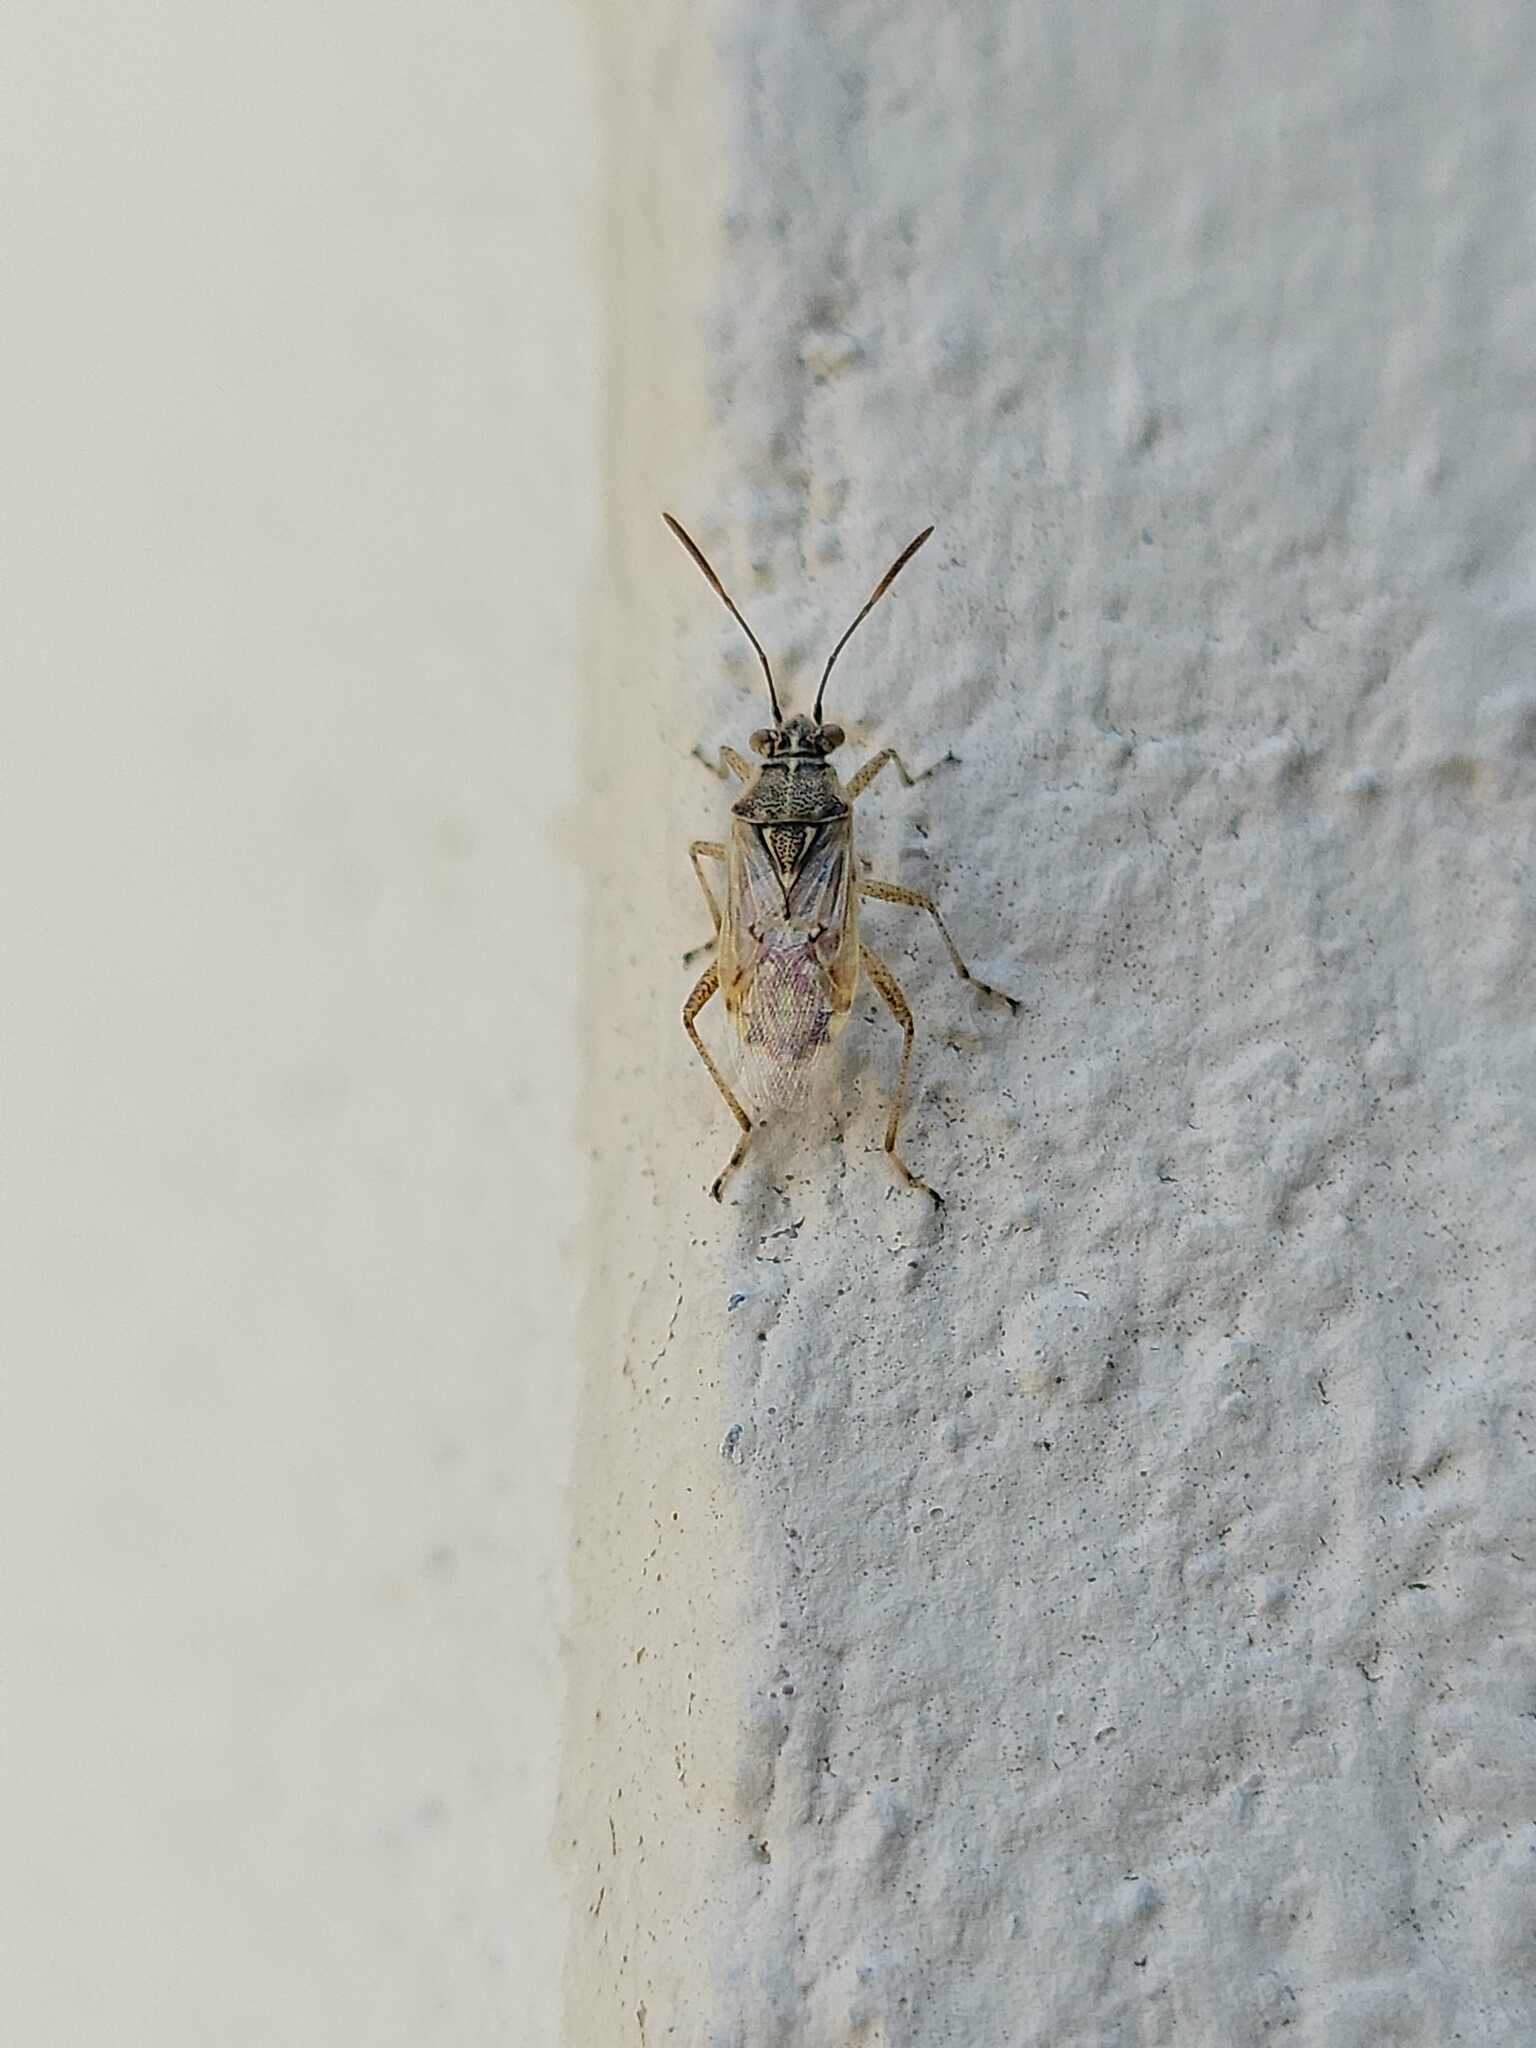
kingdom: Animalia
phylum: Arthropoda
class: Insecta
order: Hemiptera
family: Rhopalidae
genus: Liorhyssus
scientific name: Liorhyssus hyalinus
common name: Scentless plant bug
